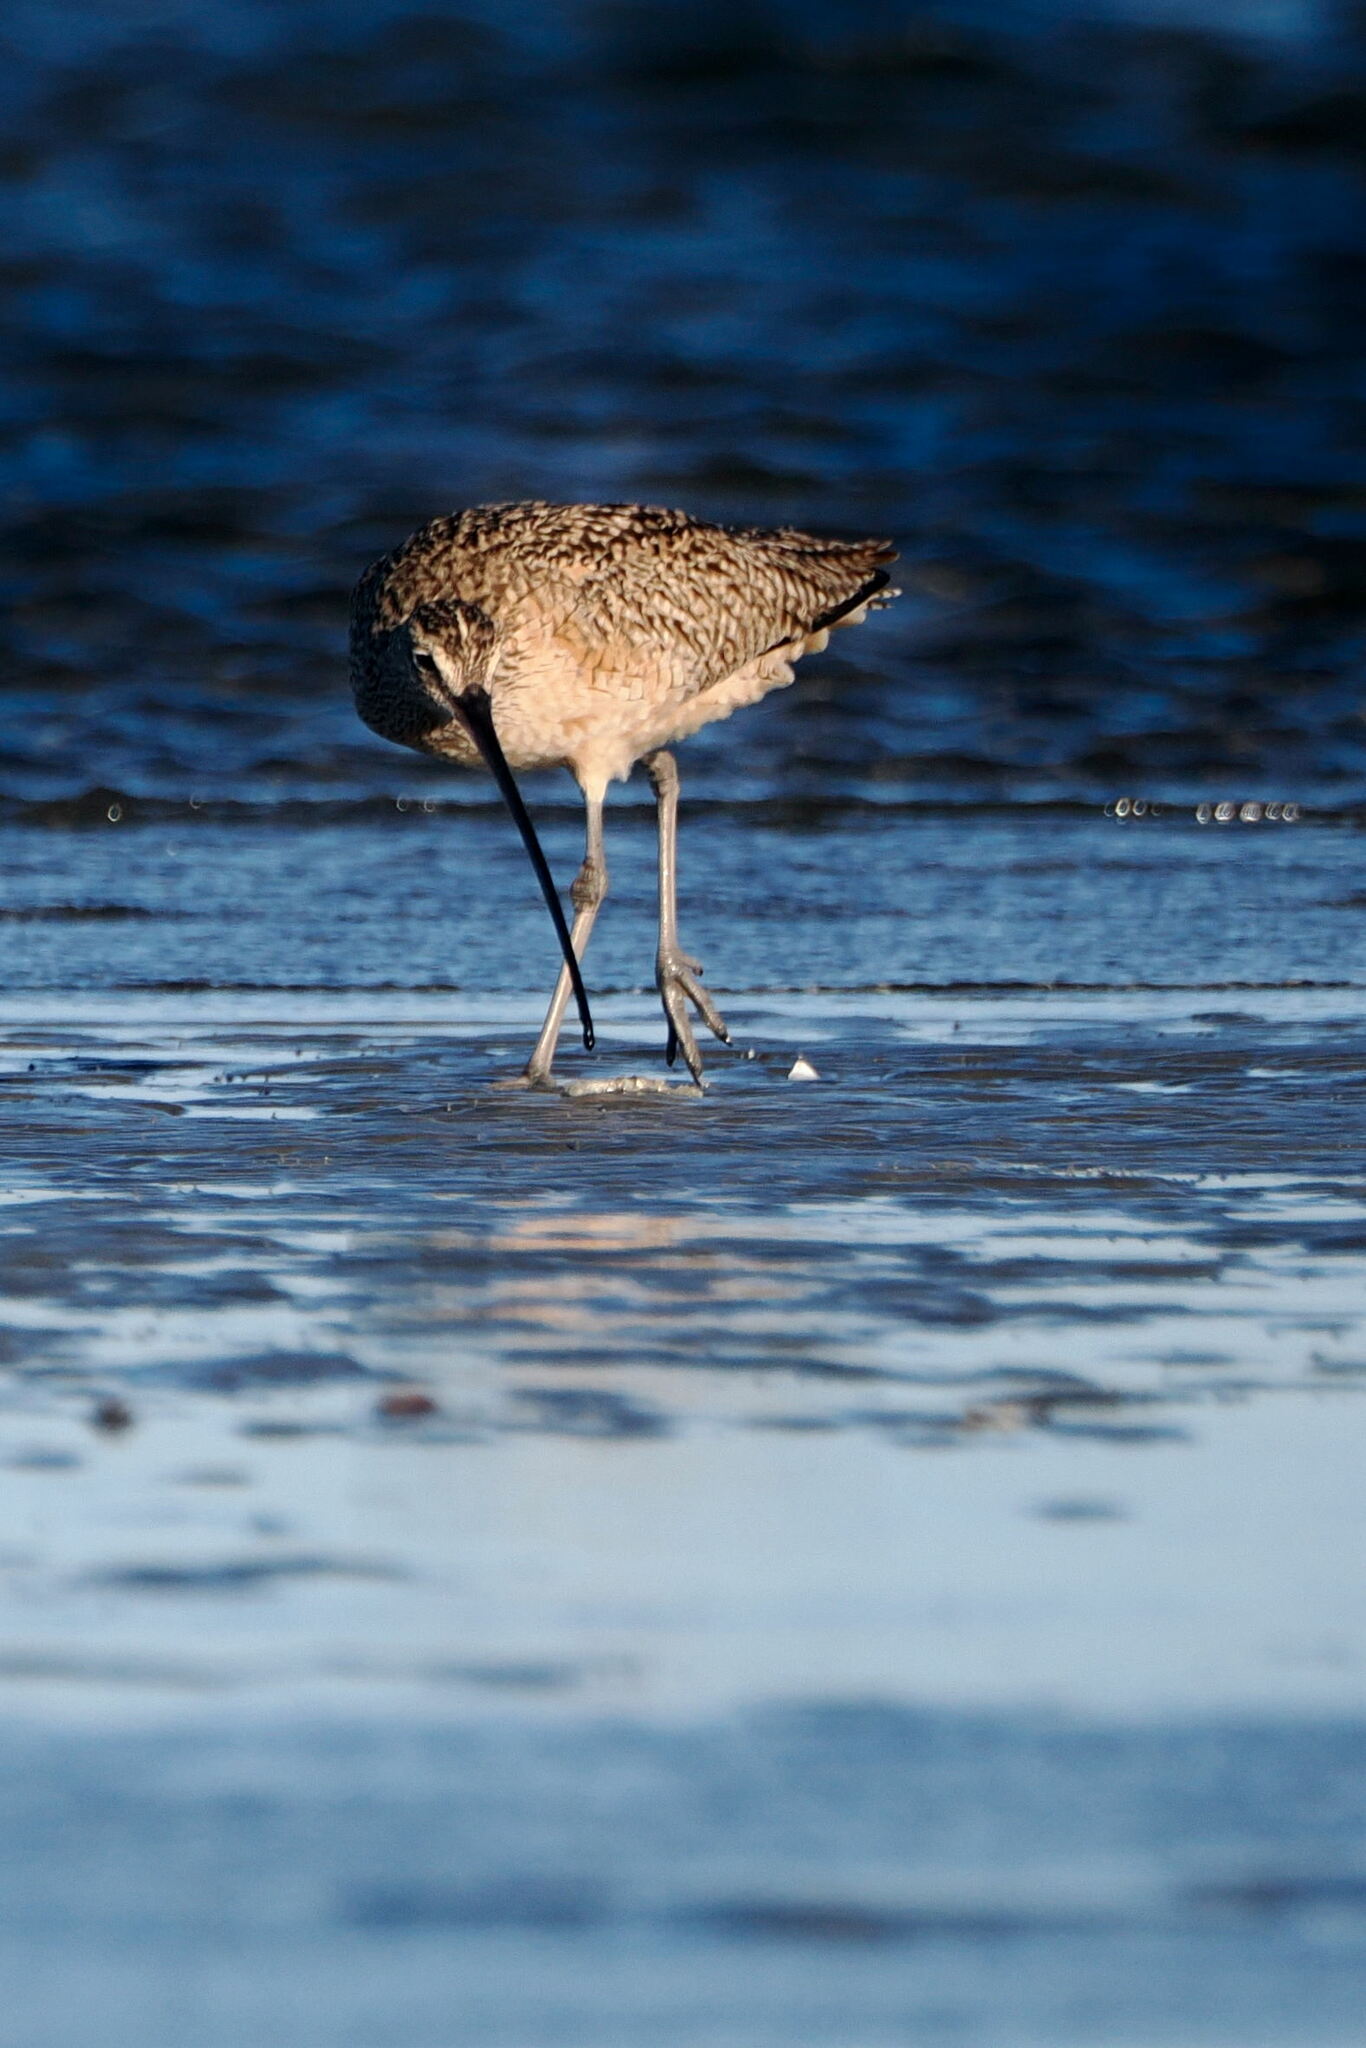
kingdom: Animalia
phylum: Chordata
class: Aves
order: Charadriiformes
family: Scolopacidae
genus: Numenius
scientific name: Numenius americanus
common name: Long-billed curlew
